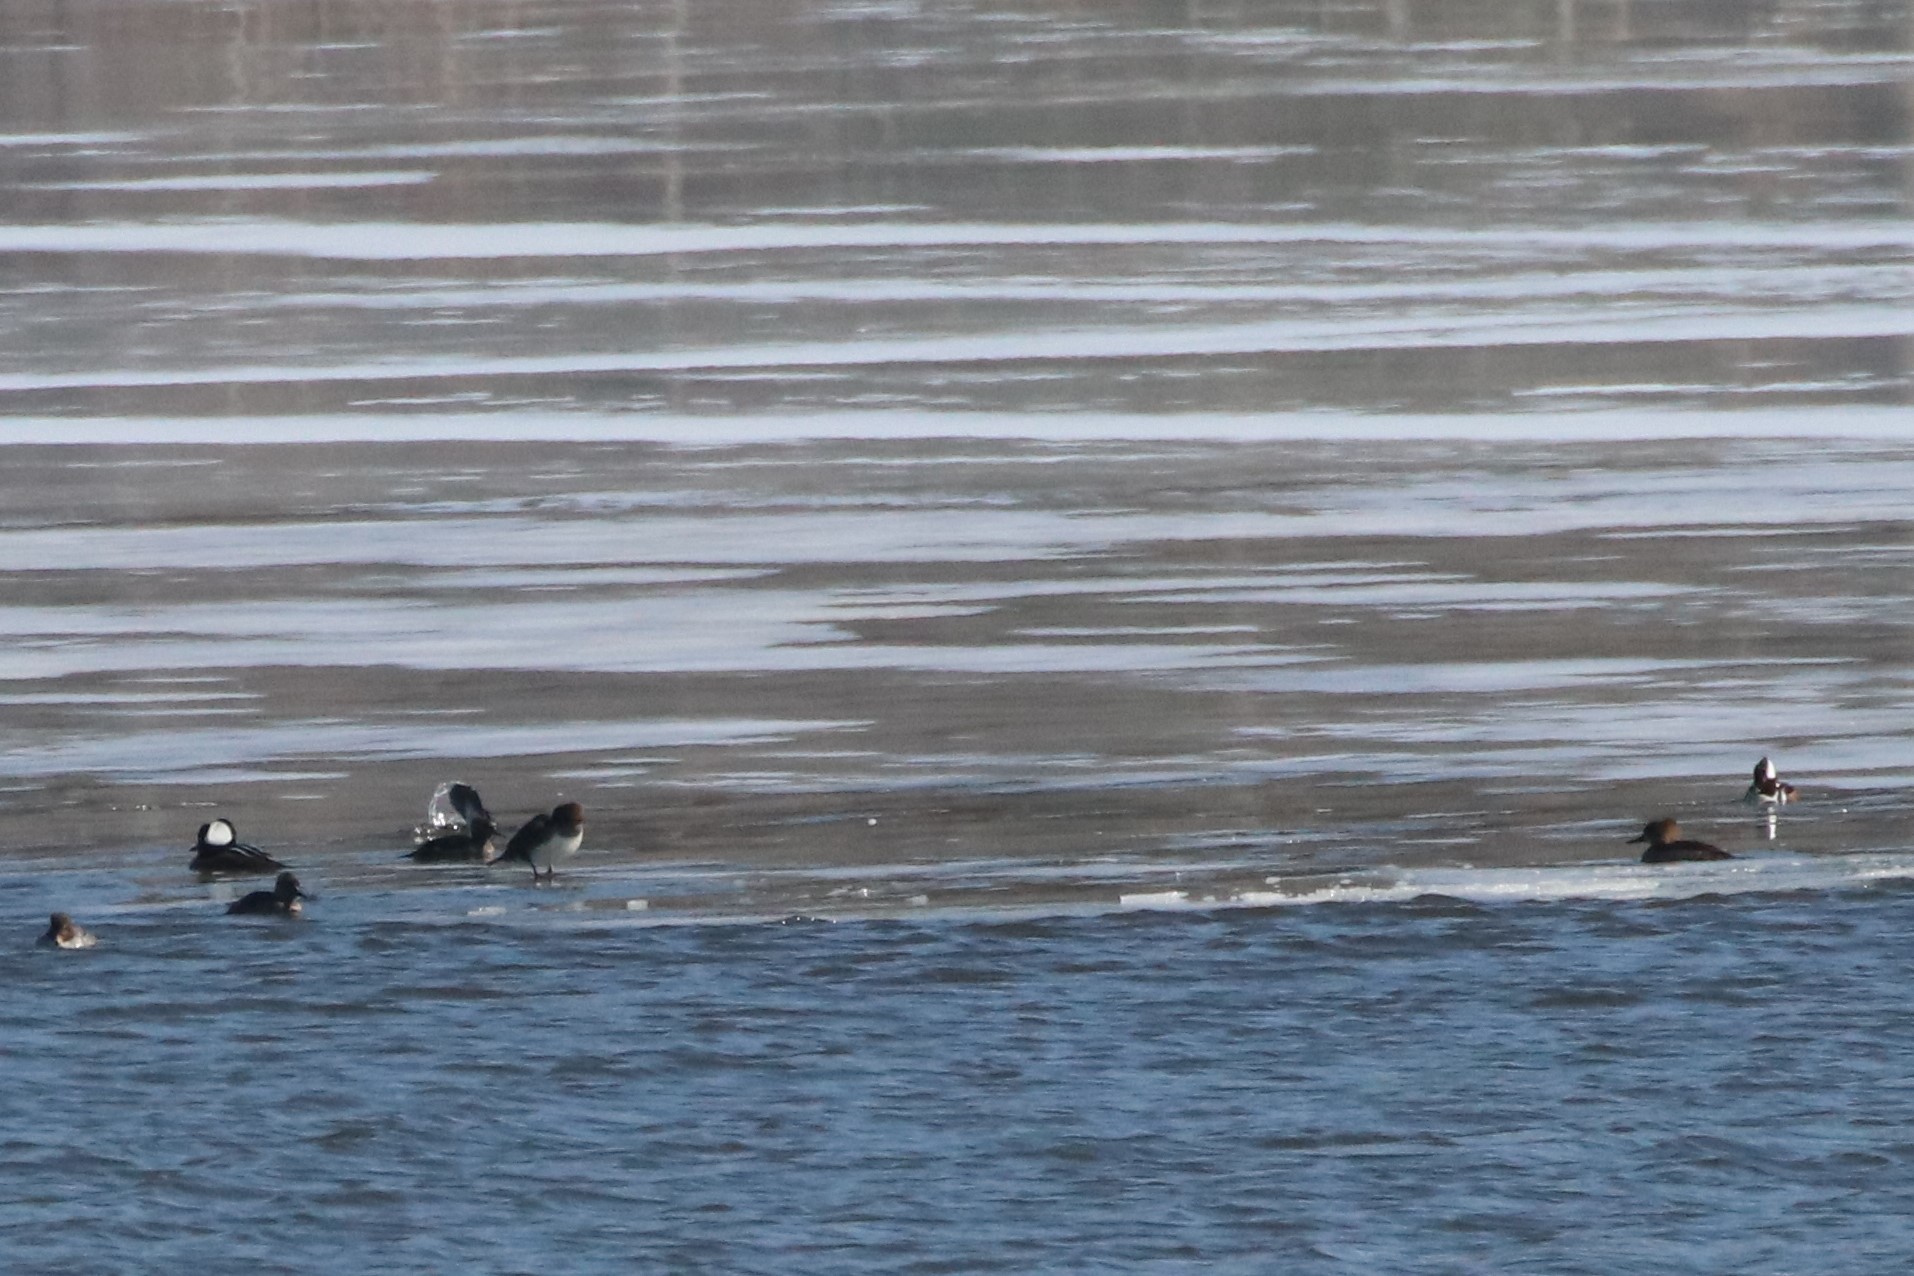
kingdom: Animalia
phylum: Chordata
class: Aves
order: Anseriformes
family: Anatidae
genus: Lophodytes
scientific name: Lophodytes cucullatus
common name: Hooded merganser
